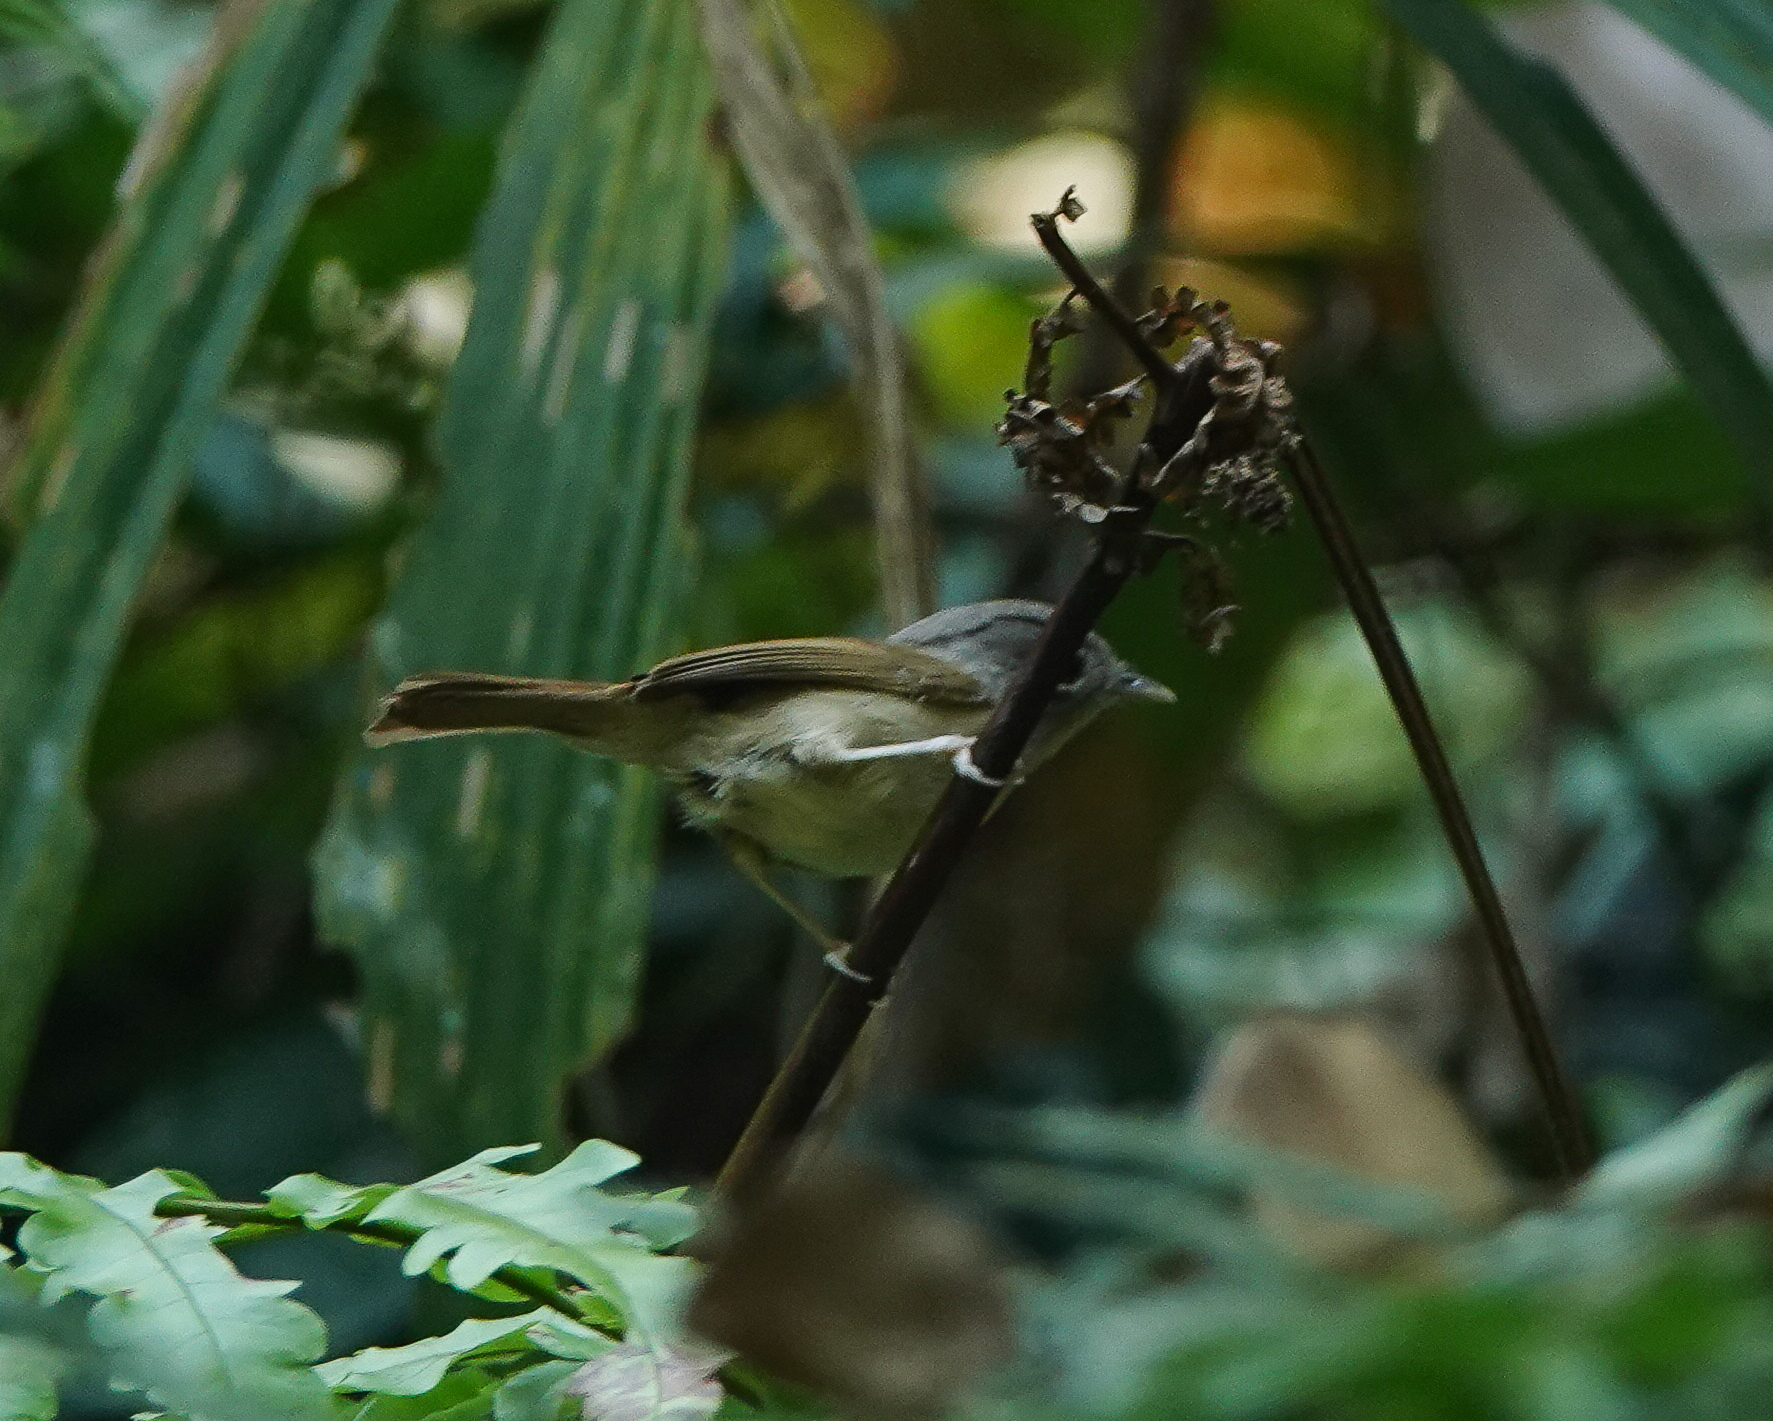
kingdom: Animalia
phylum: Chordata
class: Aves
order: Passeriformes
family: Pellorneidae
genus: Alcippe
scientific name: Alcippe nipalensis
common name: Nepal fulvetta
